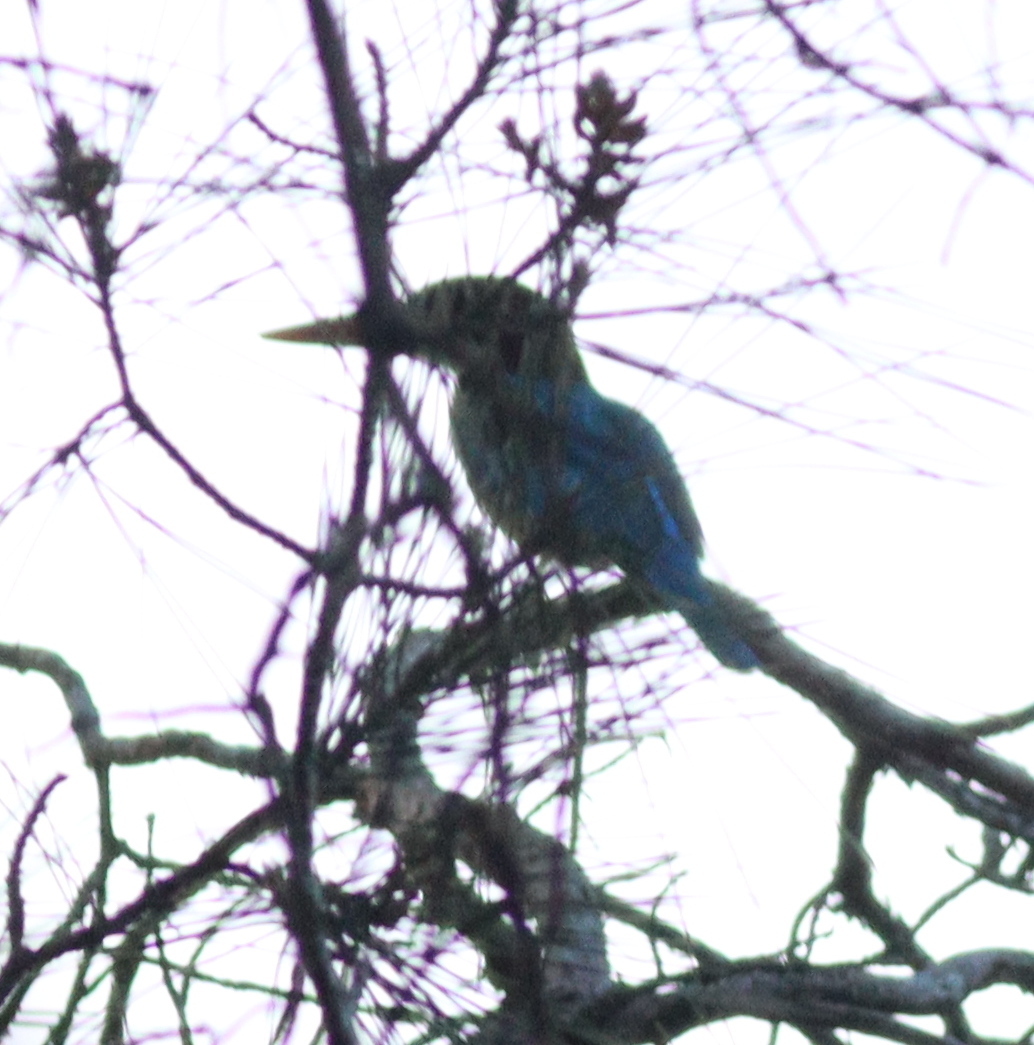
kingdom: Animalia
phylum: Chordata
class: Aves
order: Coraciiformes
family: Alcedinidae
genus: Halcyon
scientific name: Halcyon smyrnensis
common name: White-throated kingfisher
